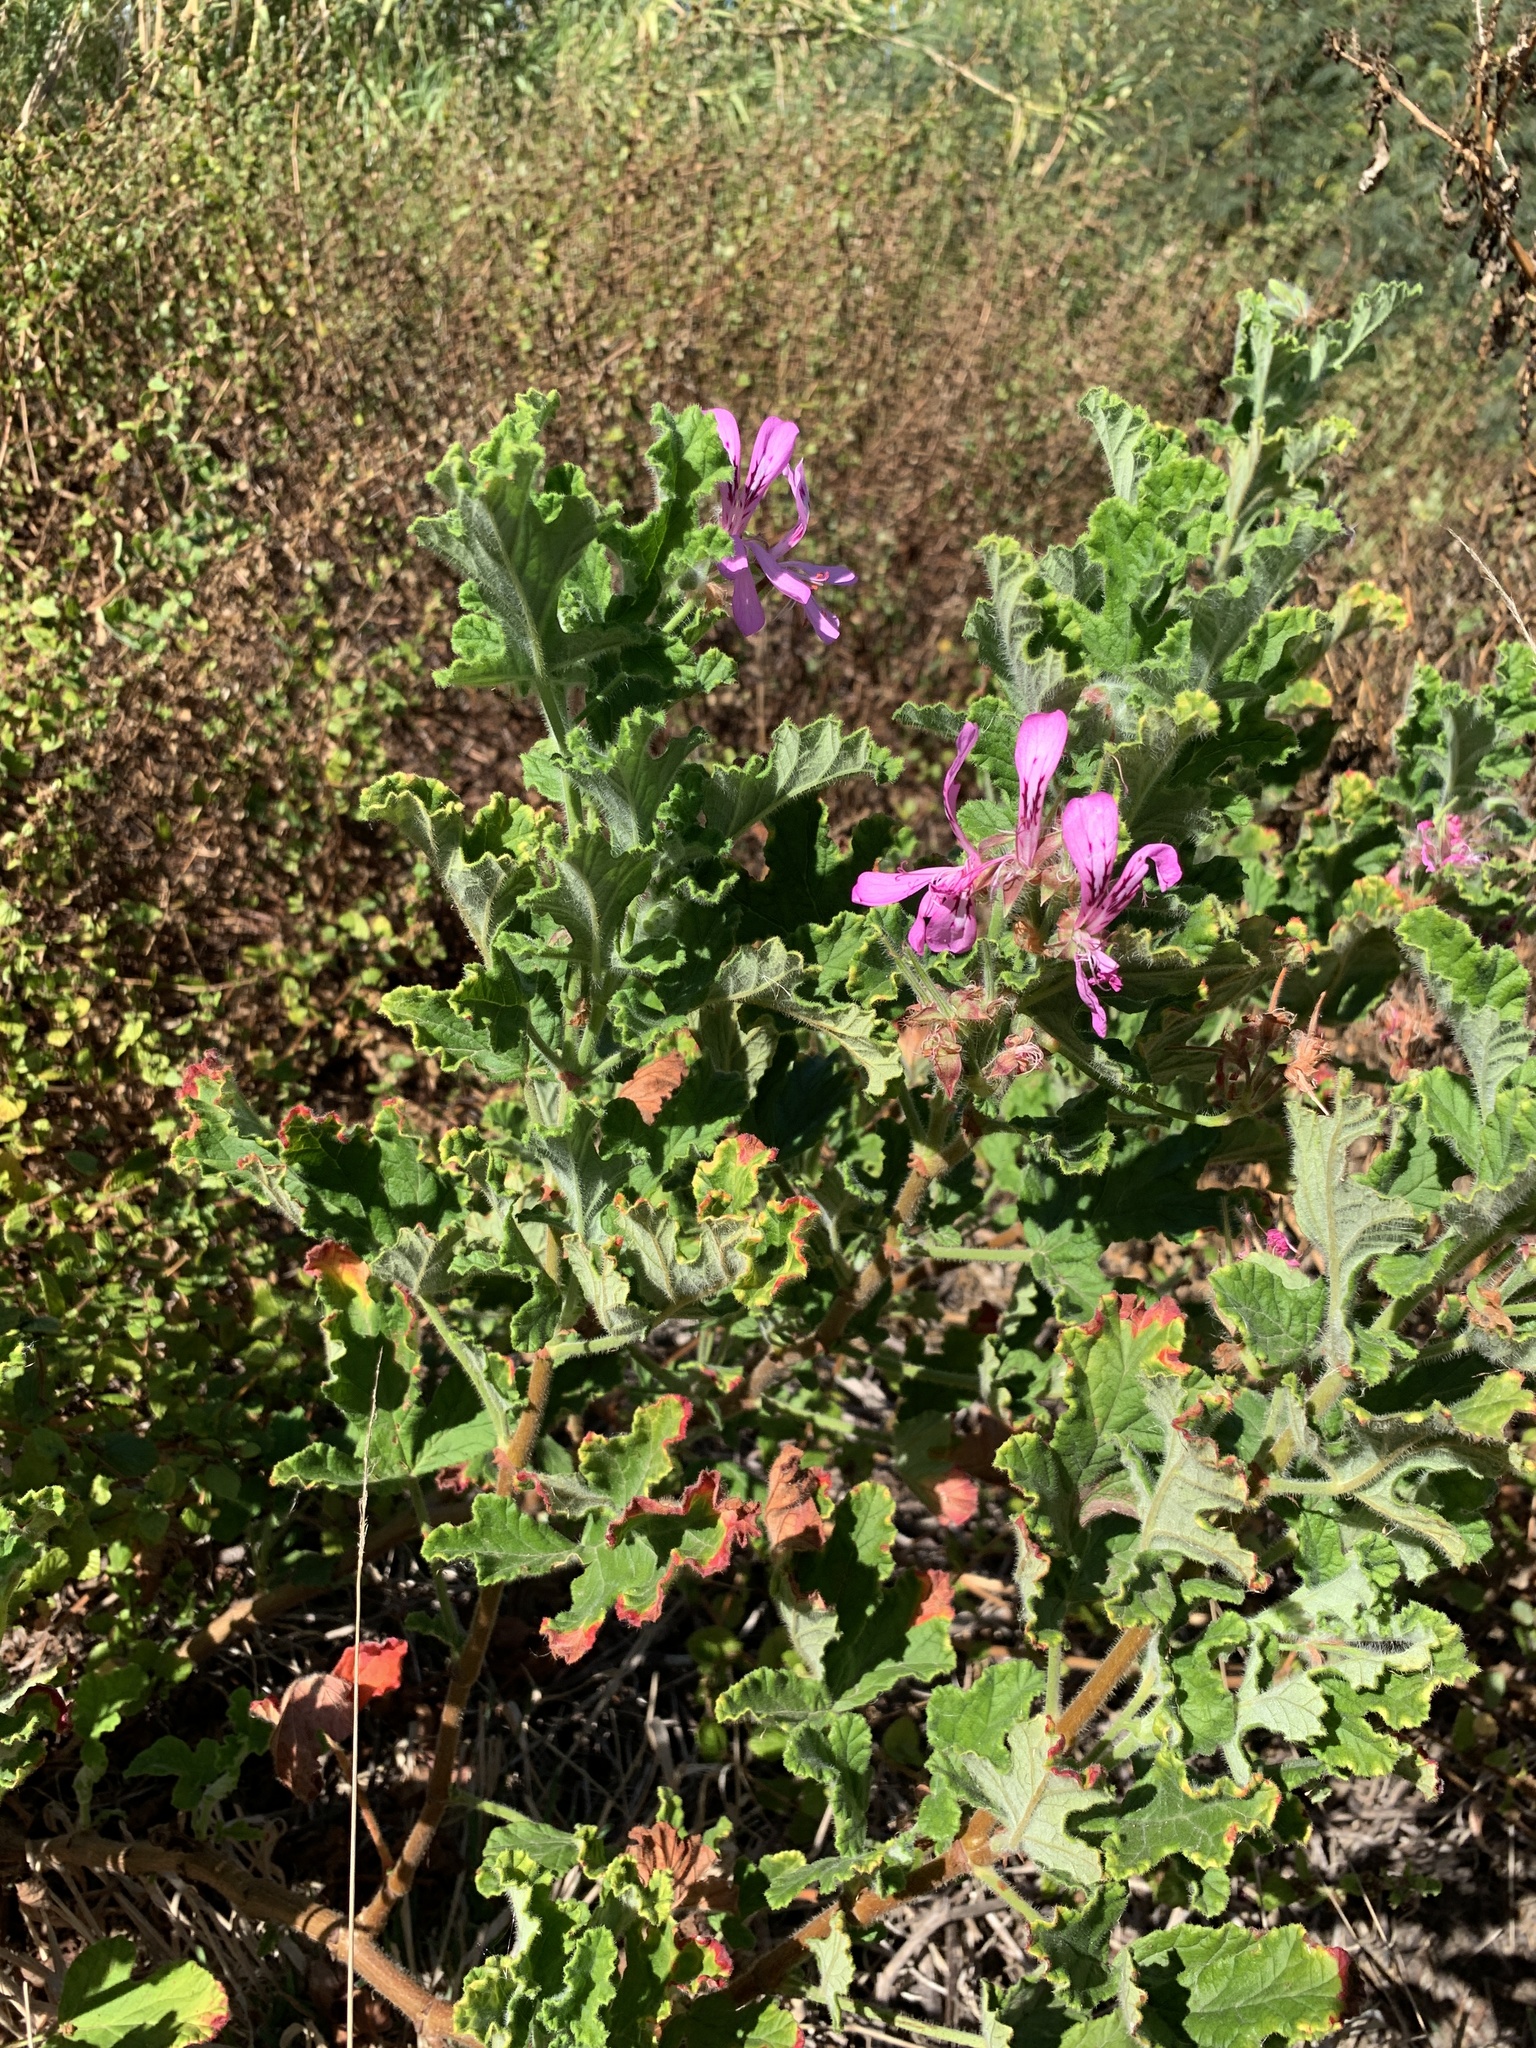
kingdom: Plantae
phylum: Tracheophyta
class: Magnoliopsida
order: Geraniales
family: Geraniaceae
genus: Pelargonium
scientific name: Pelargonium panduriforme
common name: Oakleaf garden geranium
